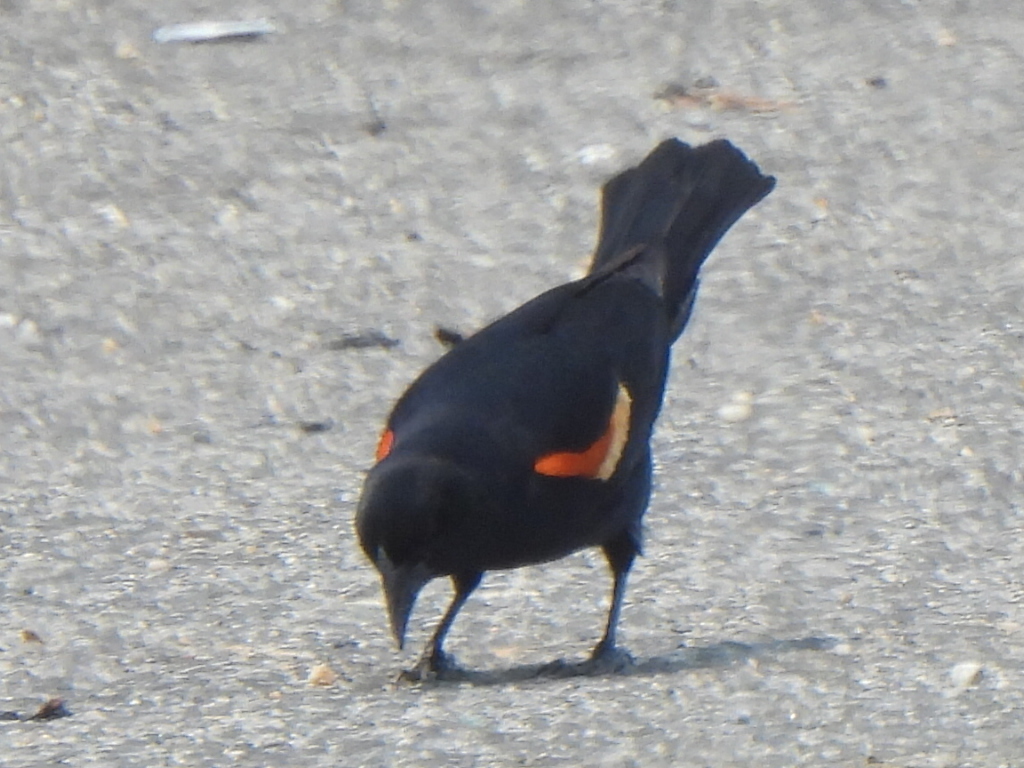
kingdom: Animalia
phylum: Chordata
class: Aves
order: Passeriformes
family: Icteridae
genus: Agelaius
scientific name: Agelaius phoeniceus
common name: Red-winged blackbird
